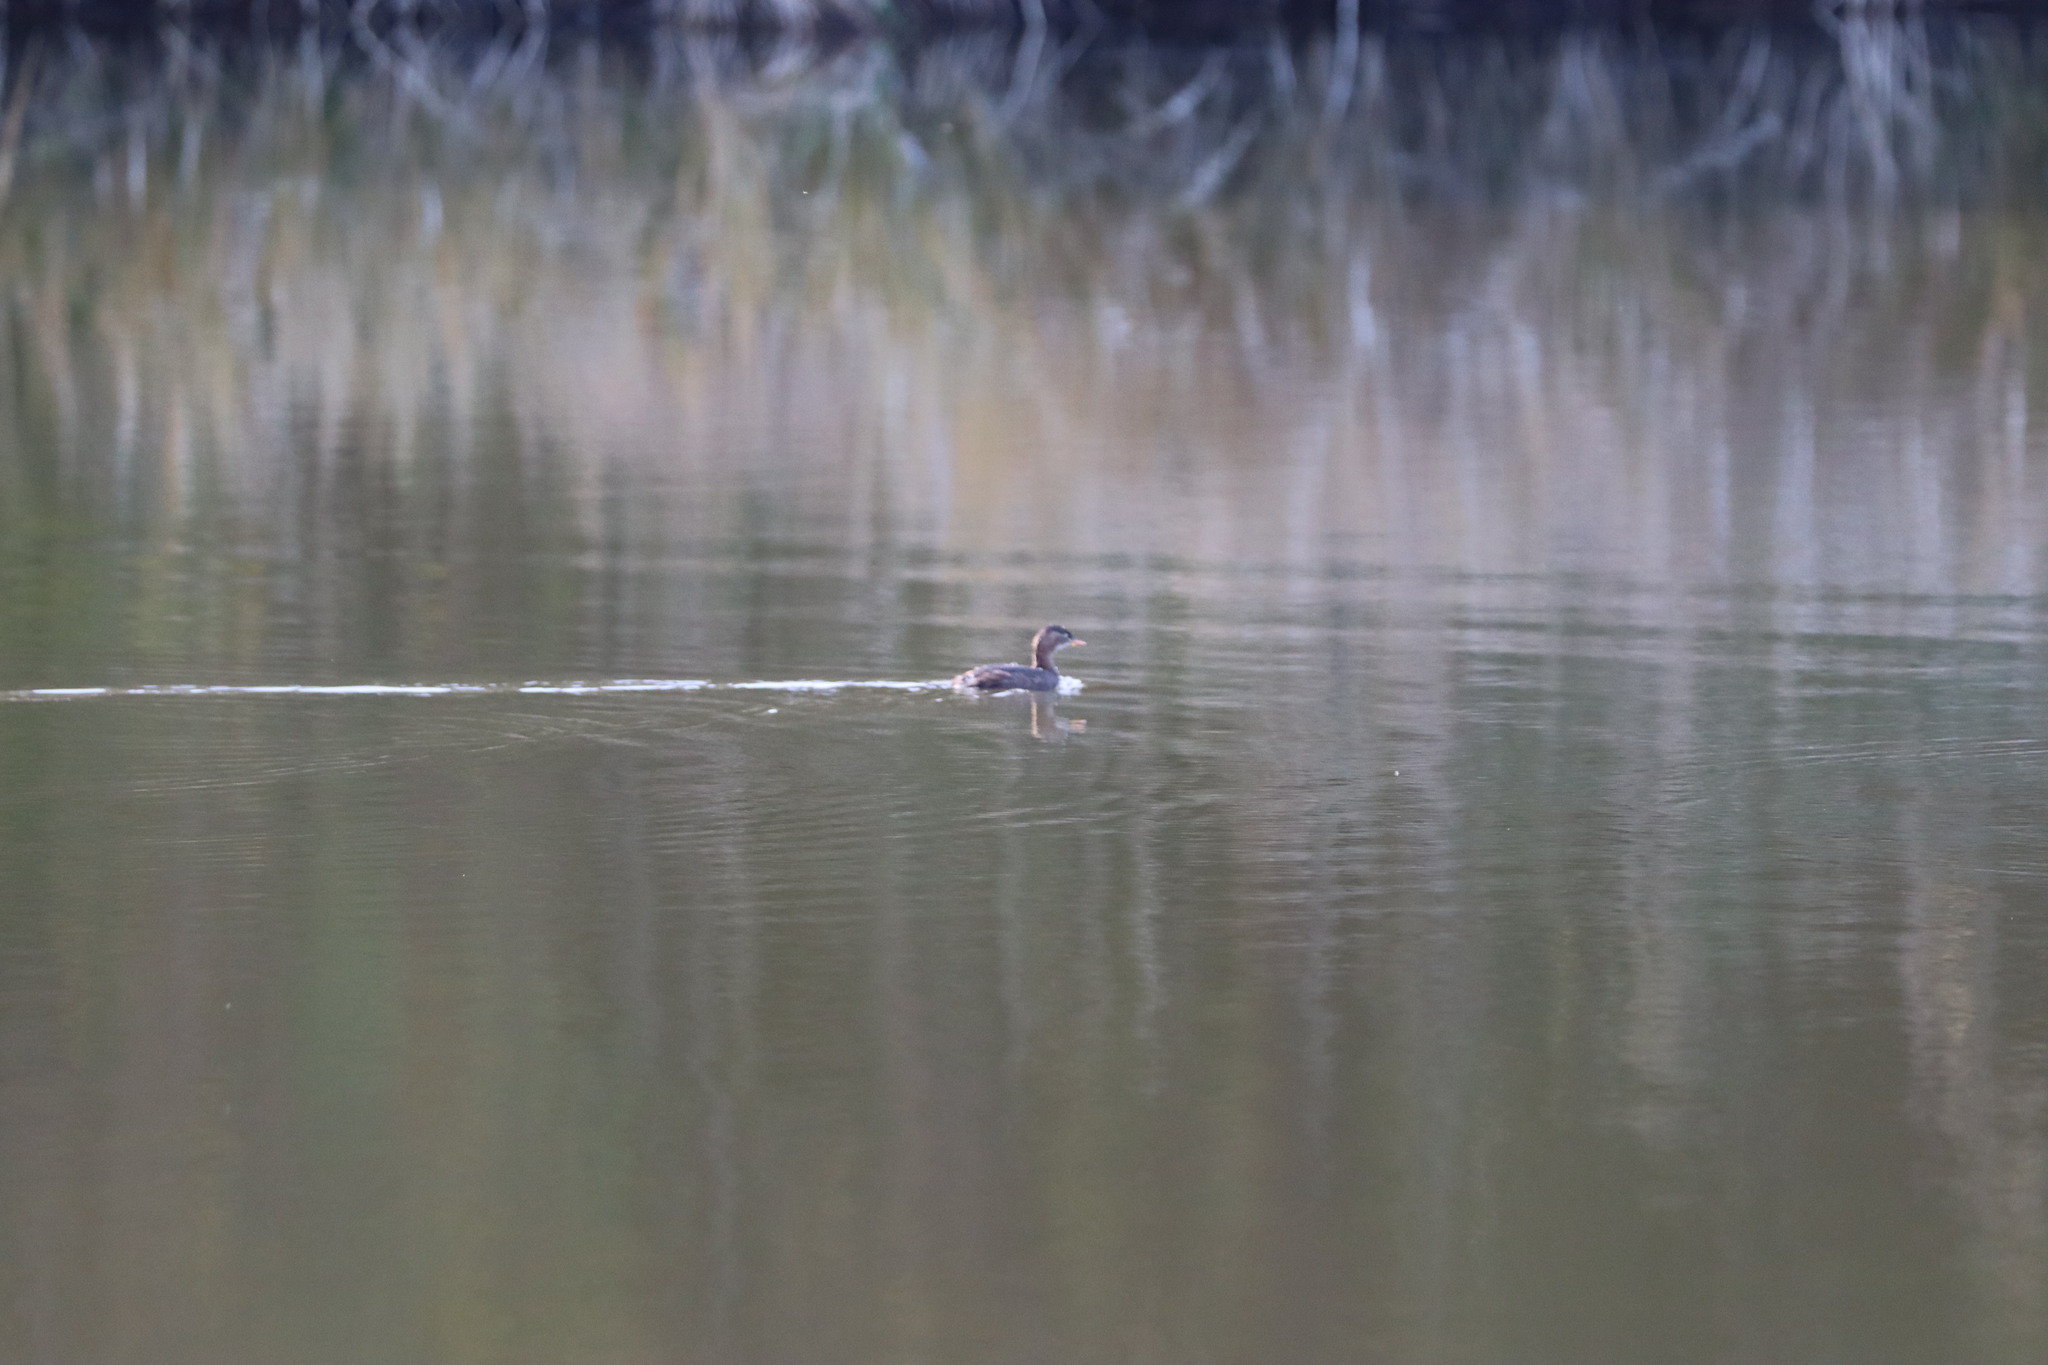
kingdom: Animalia
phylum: Chordata
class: Aves
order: Podicipediformes
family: Podicipedidae
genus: Tachybaptus
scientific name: Tachybaptus ruficollis
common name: Little grebe
